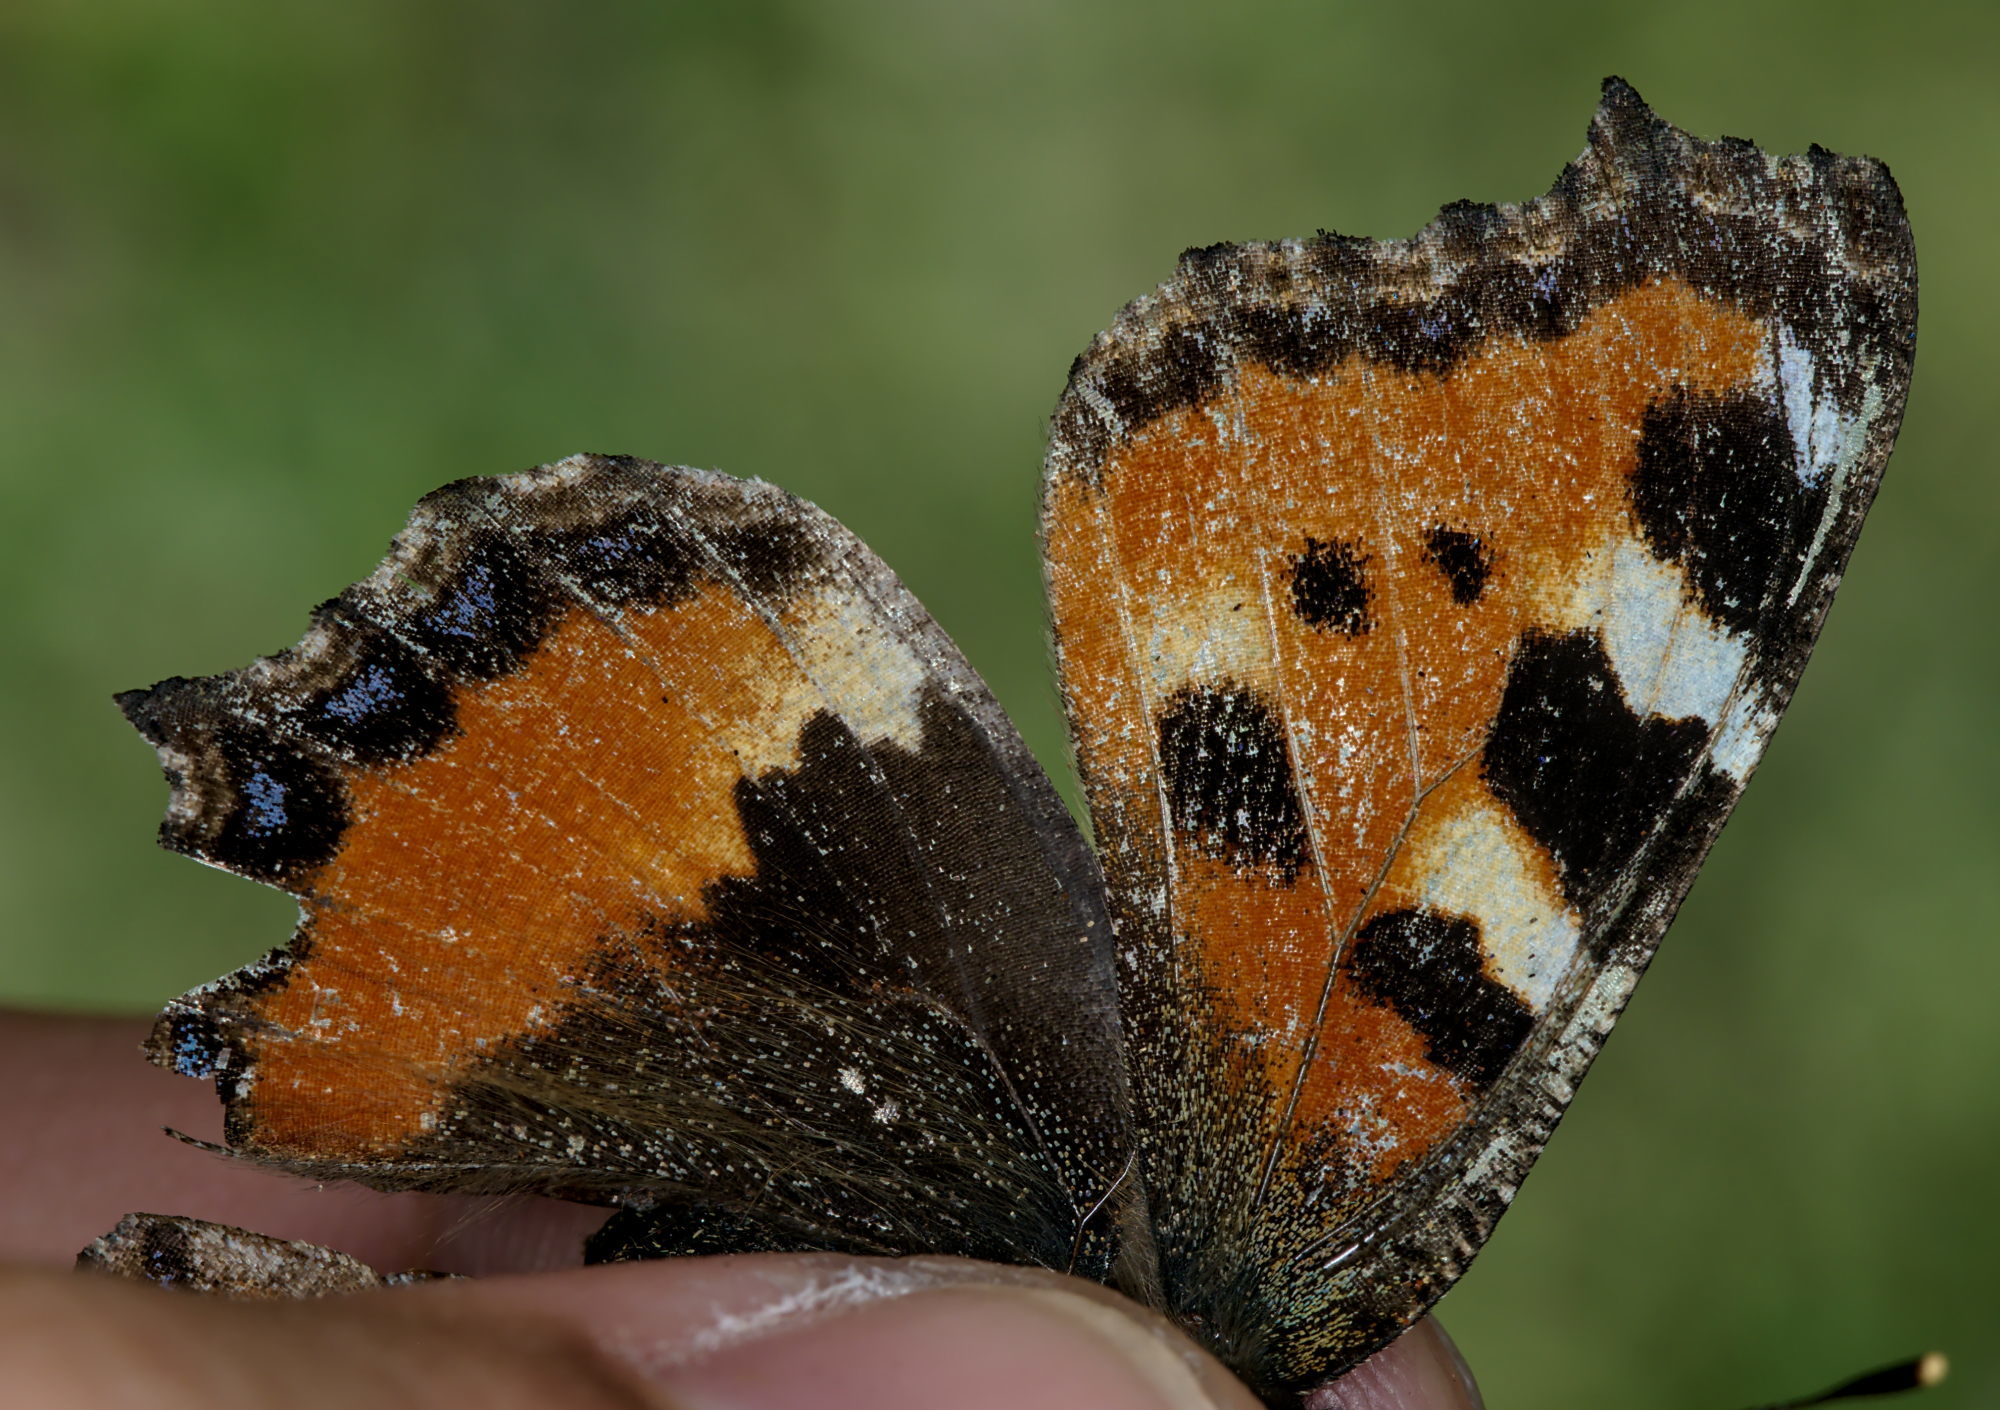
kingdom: Animalia
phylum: Arthropoda
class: Insecta
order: Lepidoptera
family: Nymphalidae
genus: Aglais
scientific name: Aglais urticae
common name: Small tortoiseshell
